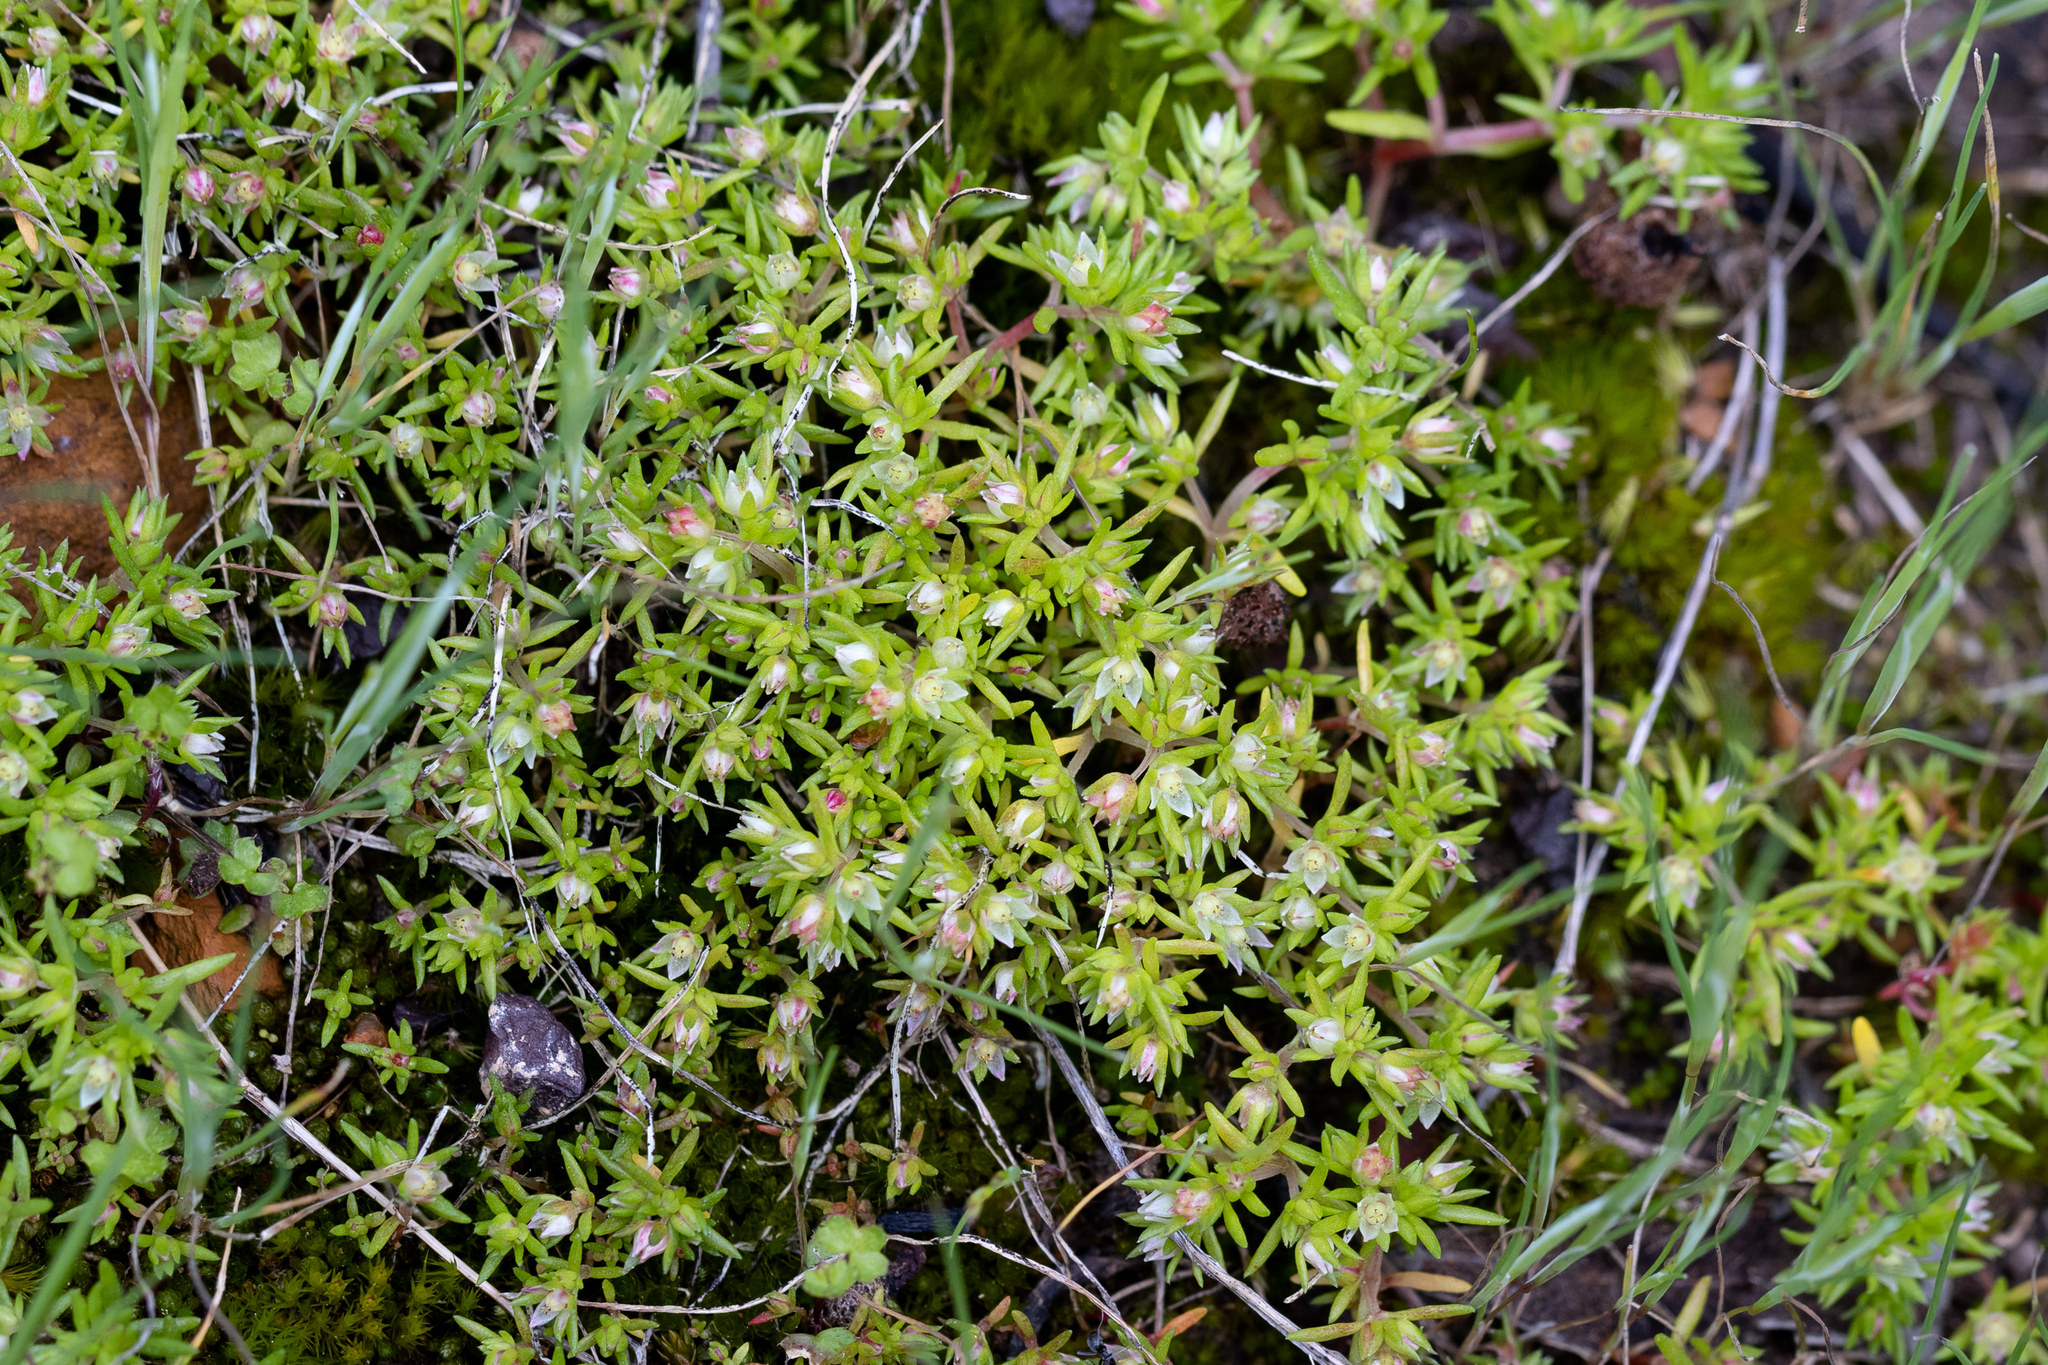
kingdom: Plantae
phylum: Tracheophyta
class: Magnoliopsida
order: Saxifragales
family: Crassulaceae
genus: Crassula
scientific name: Crassula decumbens
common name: Scilly pigmyweed
